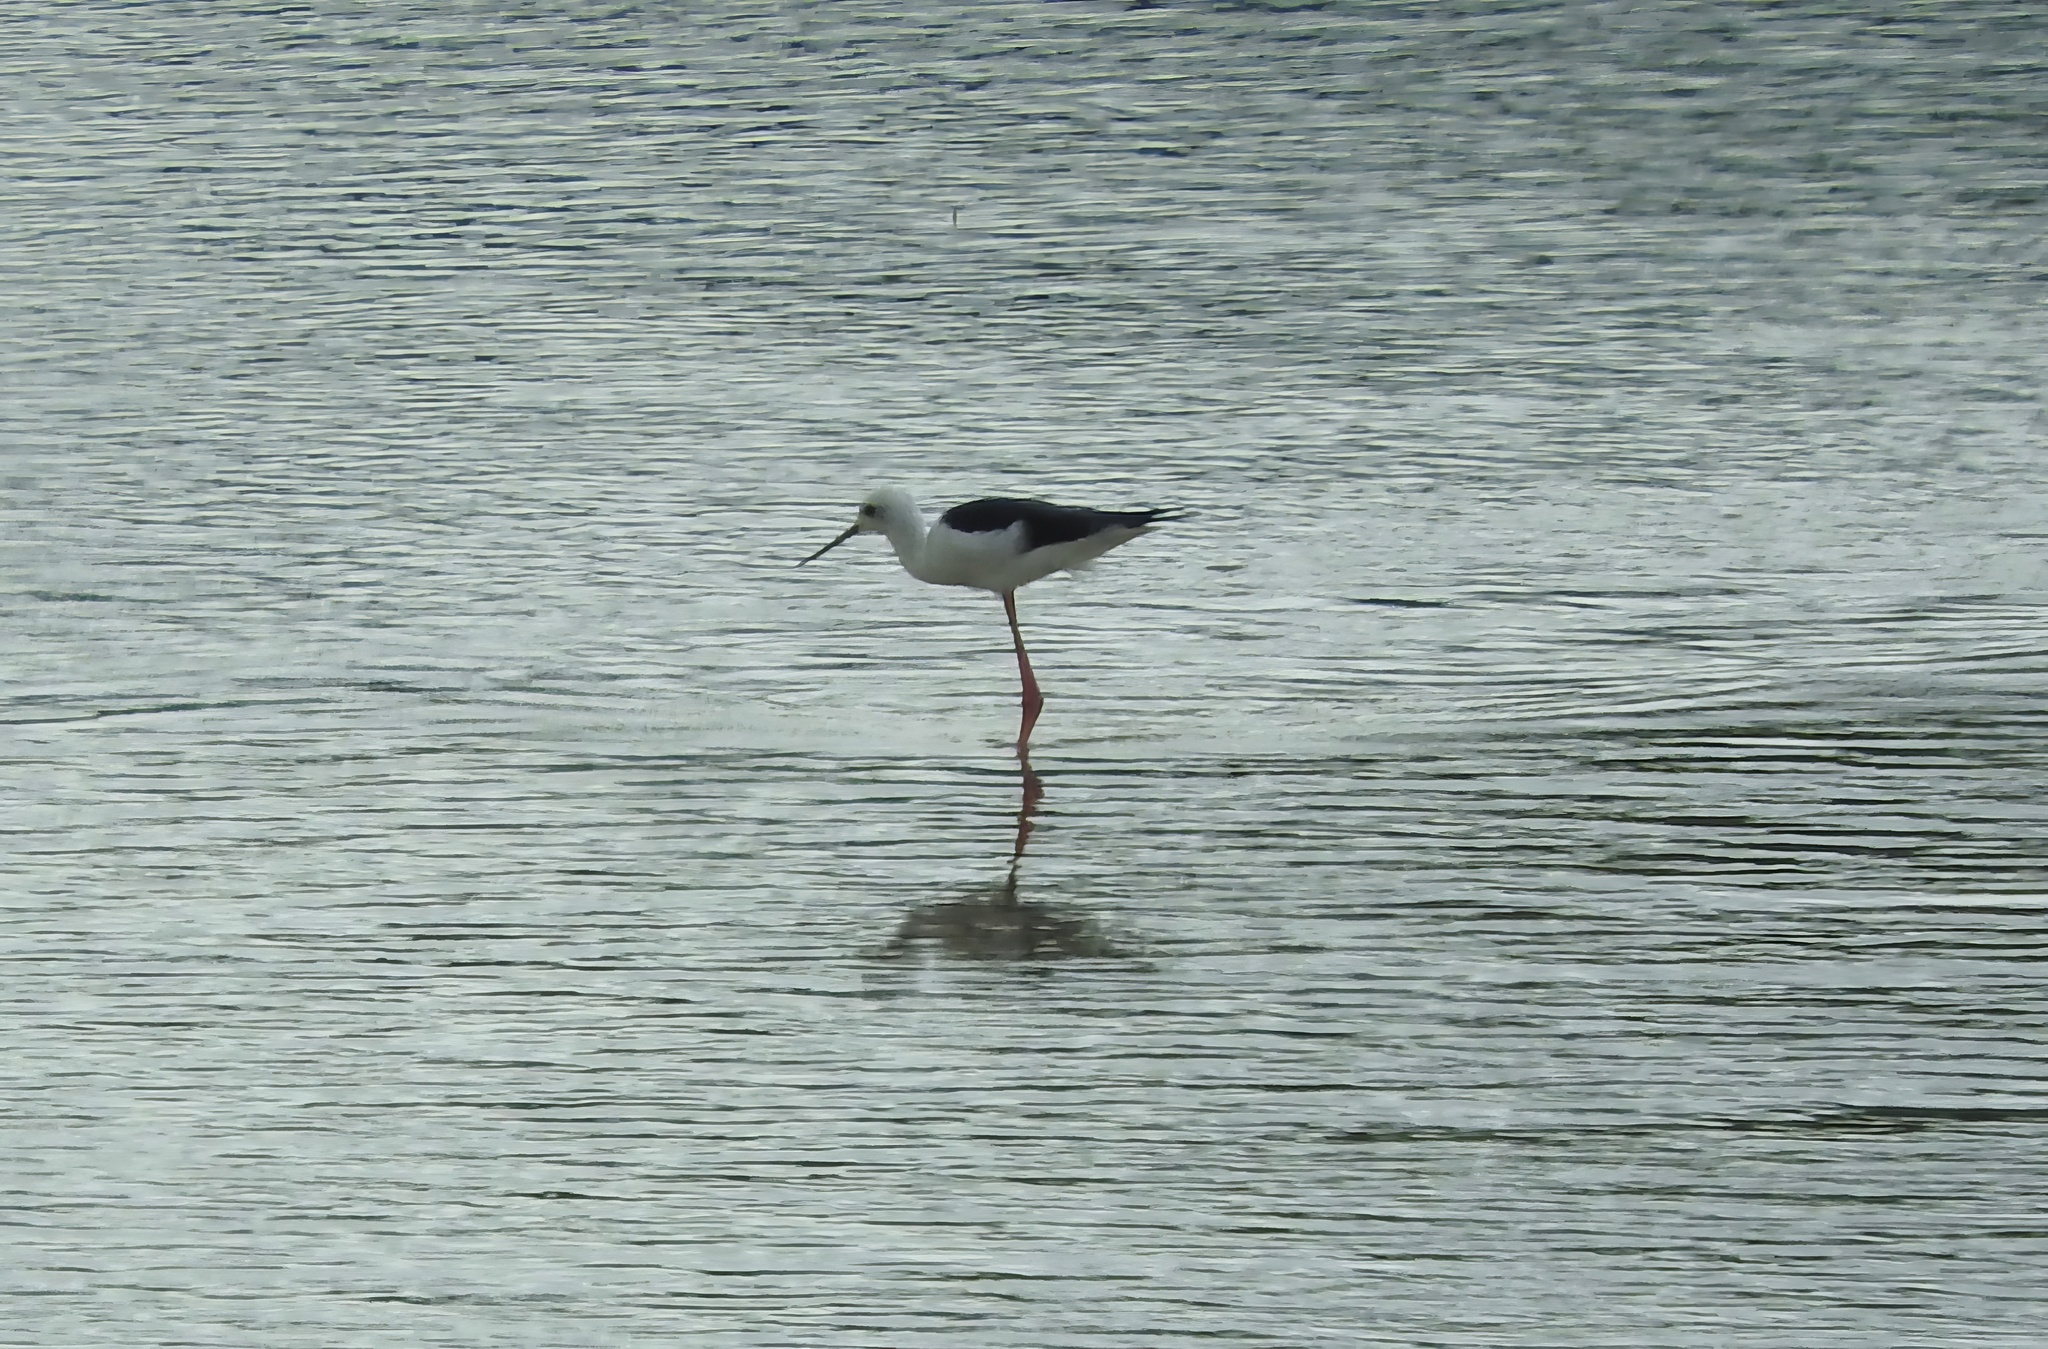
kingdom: Animalia
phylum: Chordata
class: Aves
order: Charadriiformes
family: Recurvirostridae
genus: Himantopus
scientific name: Himantopus himantopus
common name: Black-winged stilt
